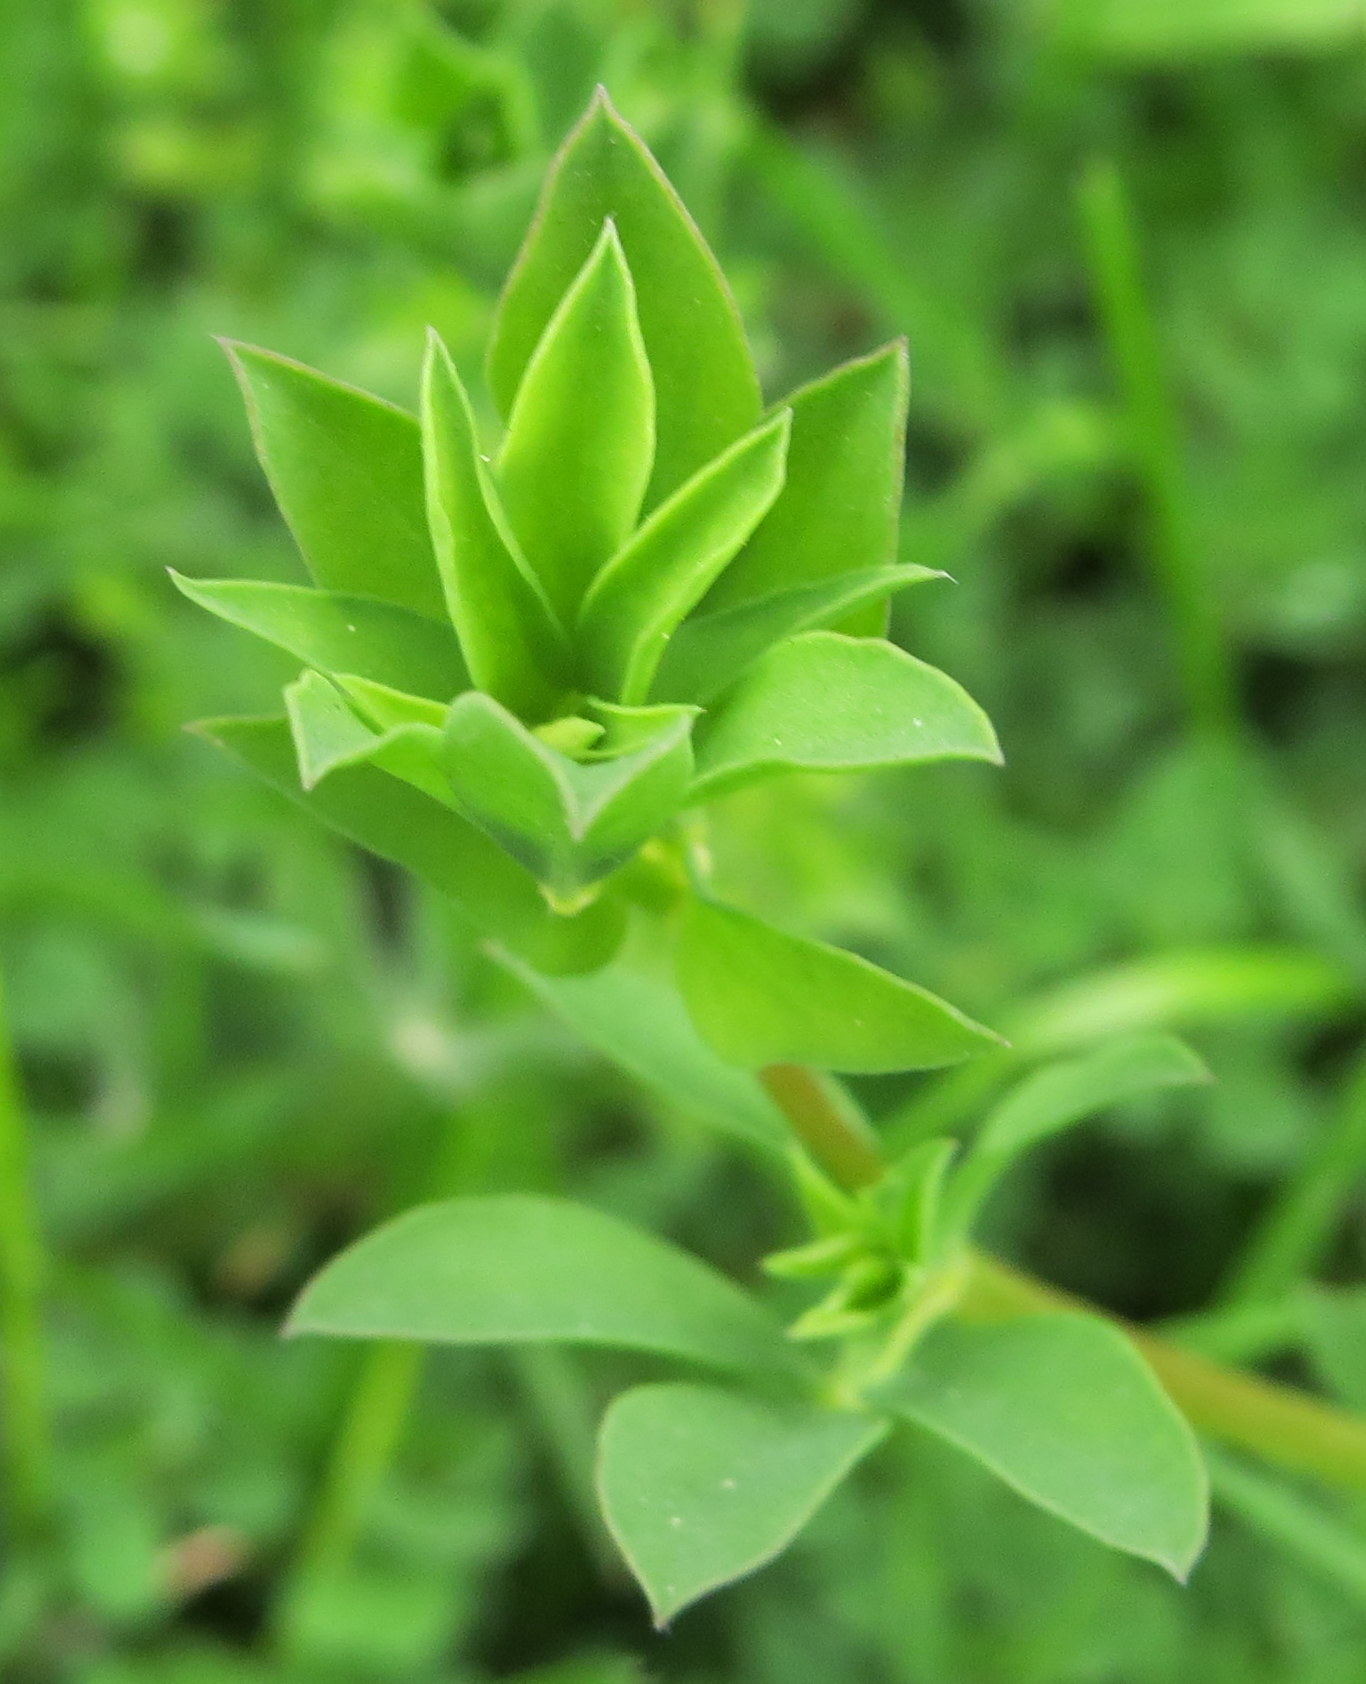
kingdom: Plantae
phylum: Tracheophyta
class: Magnoliopsida
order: Fabales
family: Fabaceae
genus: Lotus
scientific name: Lotus corniculatus
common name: Common bird's-foot-trefoil
